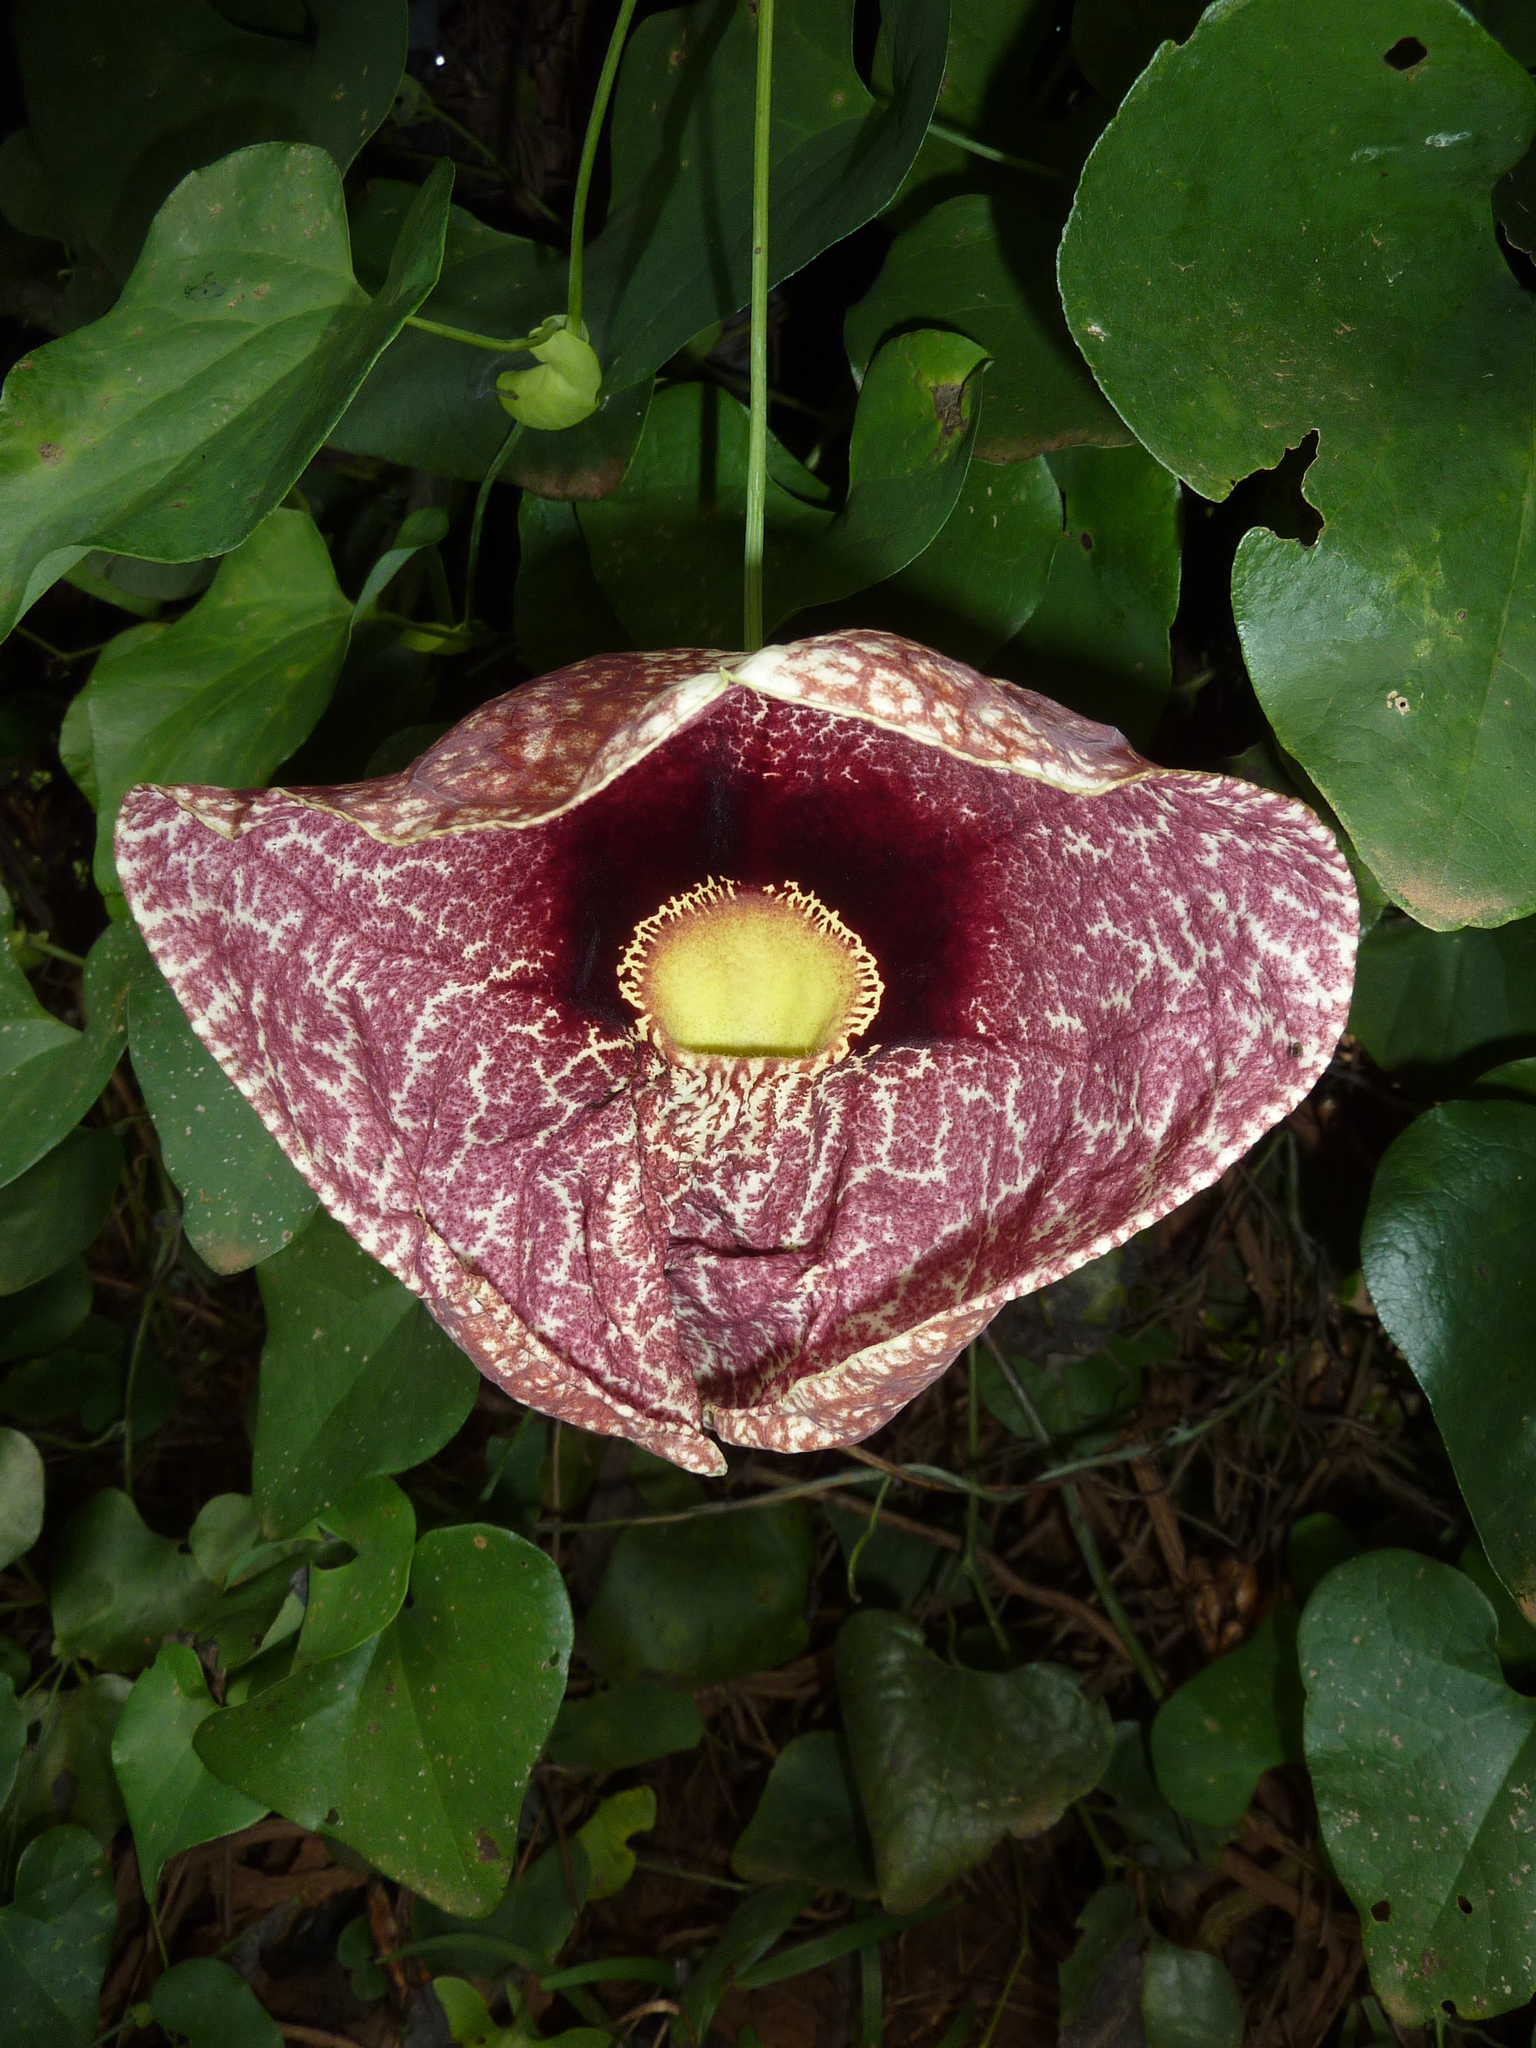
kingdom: Plantae
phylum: Tracheophyta
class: Magnoliopsida
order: Piperales
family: Aristolochiaceae
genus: Aristolochia
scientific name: Aristolochia littoralis
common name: Duck
